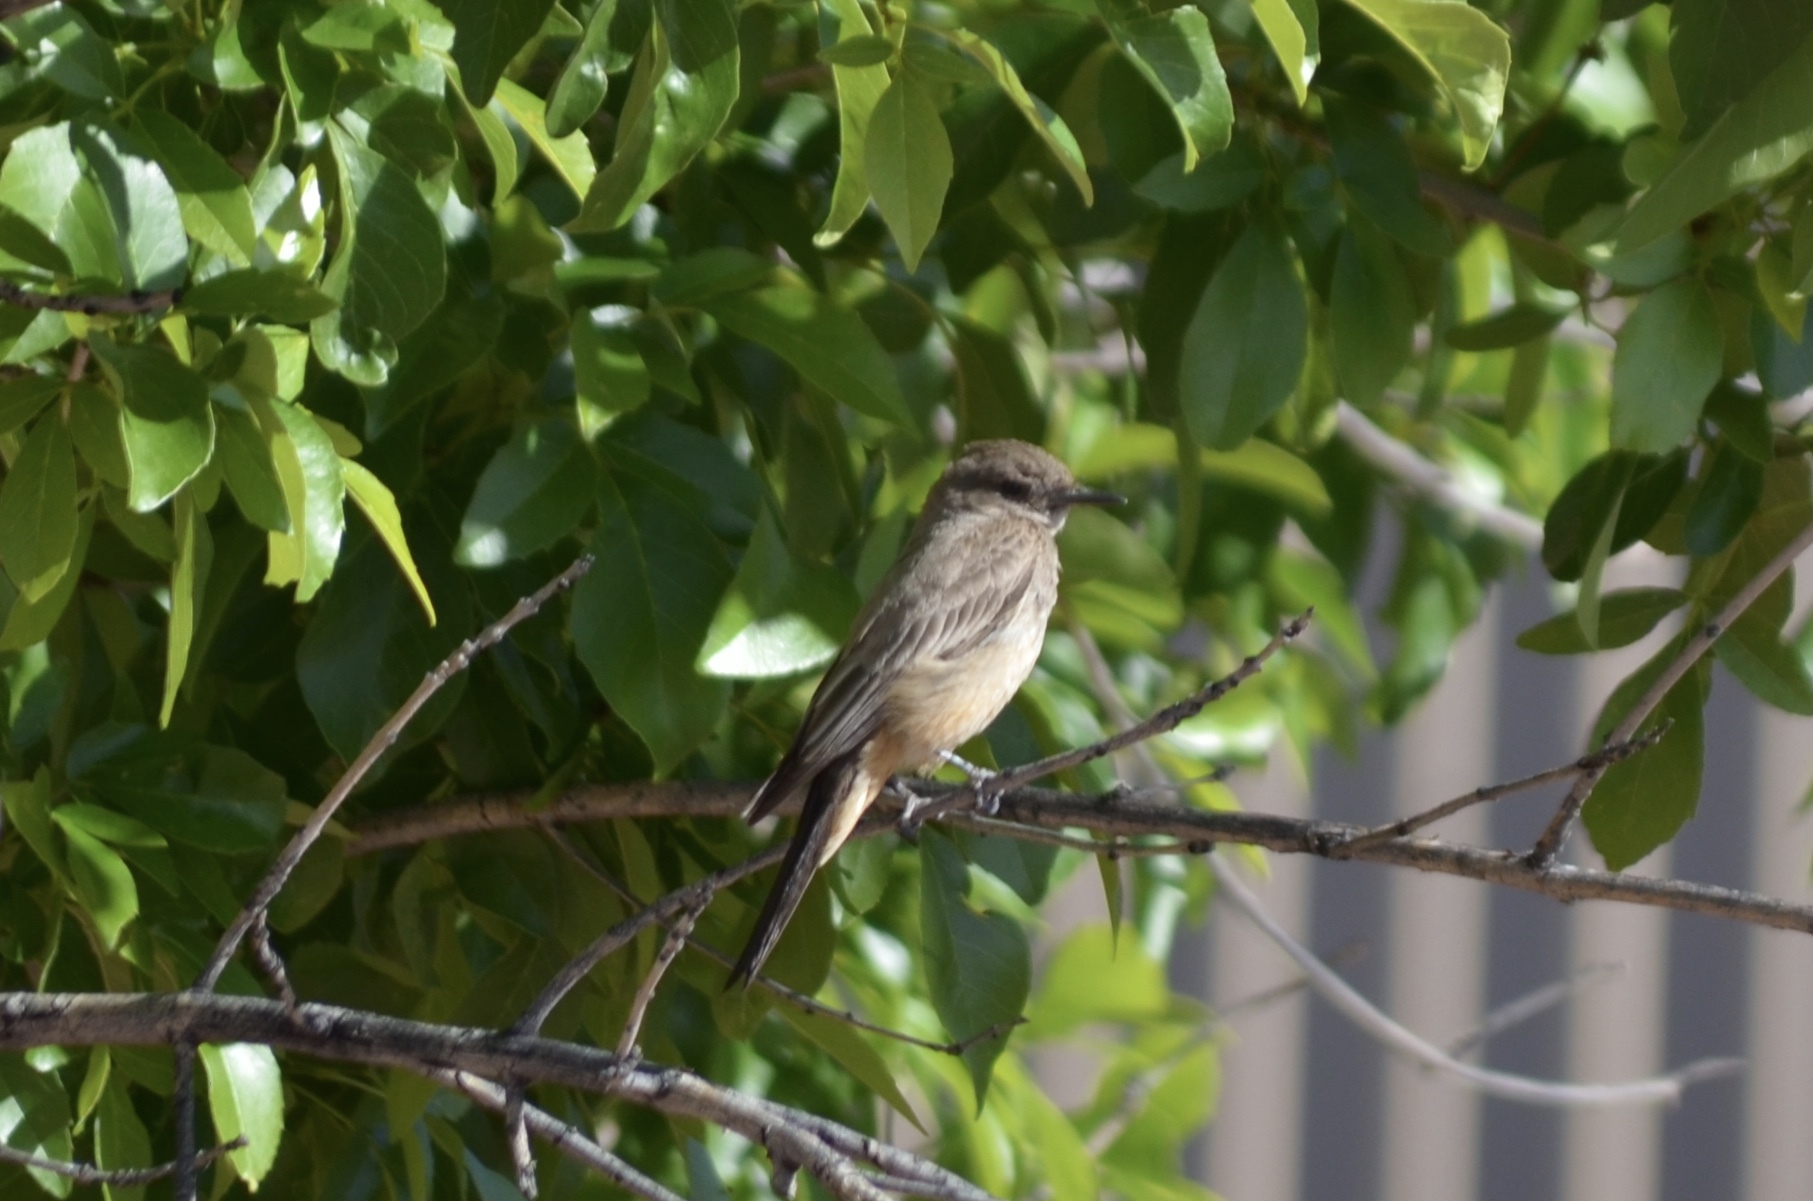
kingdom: Animalia
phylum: Chordata
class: Aves
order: Passeriformes
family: Tyrannidae
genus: Sayornis
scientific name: Sayornis saya
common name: Say's phoebe
